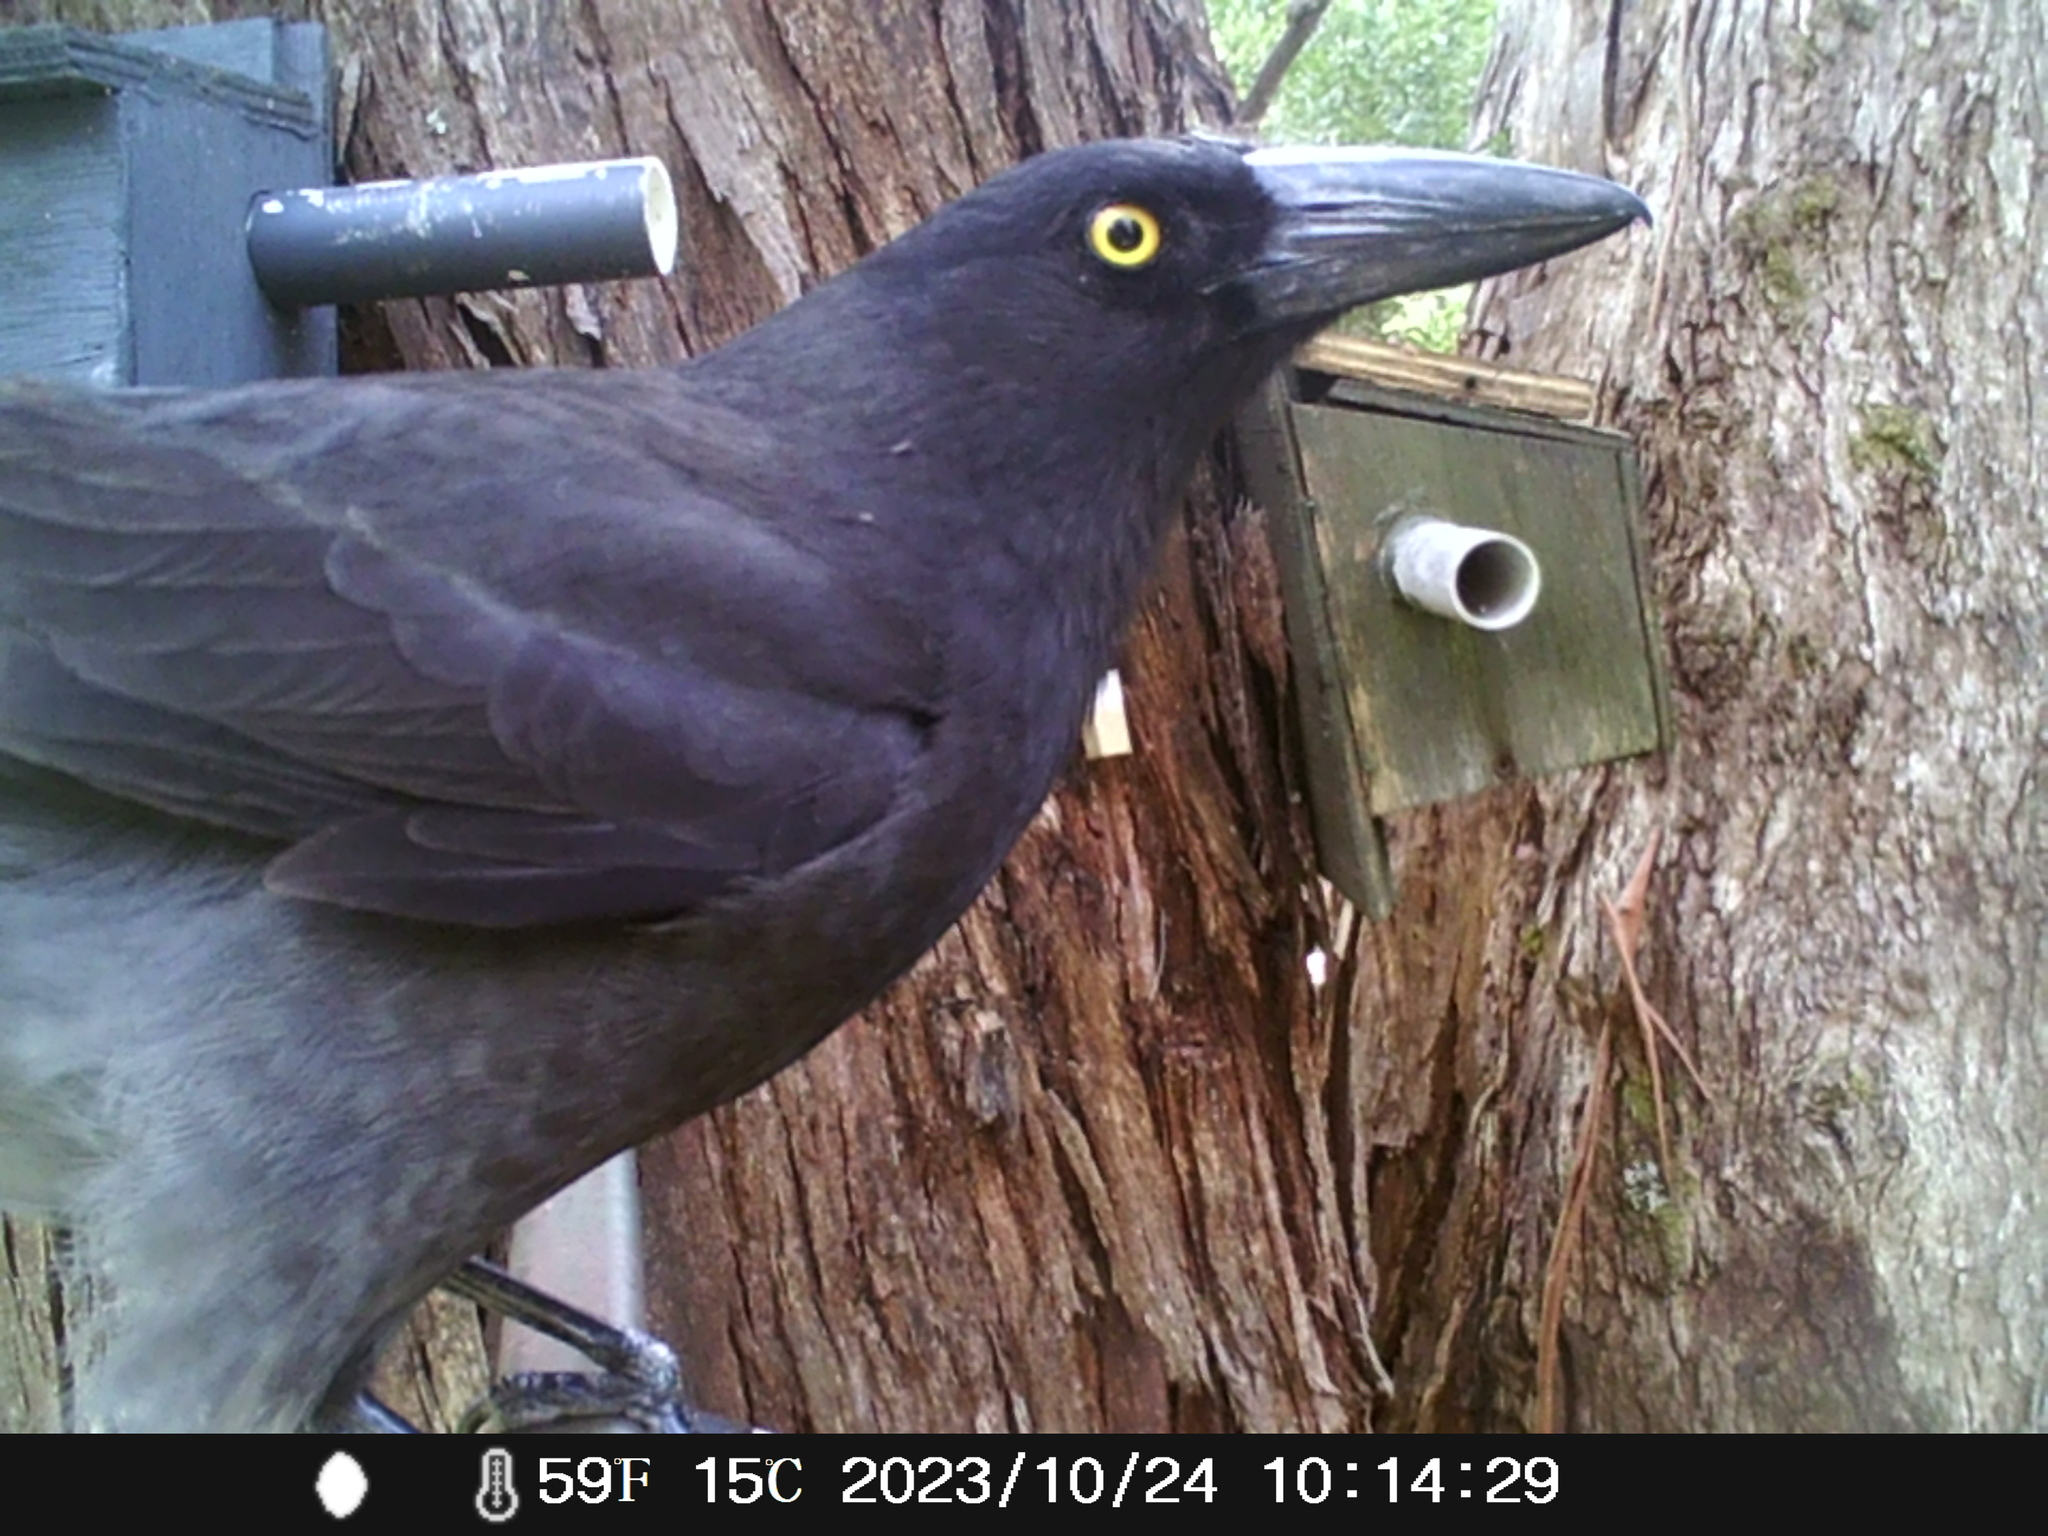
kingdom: Animalia
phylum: Chordata
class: Aves
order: Passeriformes
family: Cracticidae
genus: Strepera
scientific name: Strepera graculina
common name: Pied currawong
